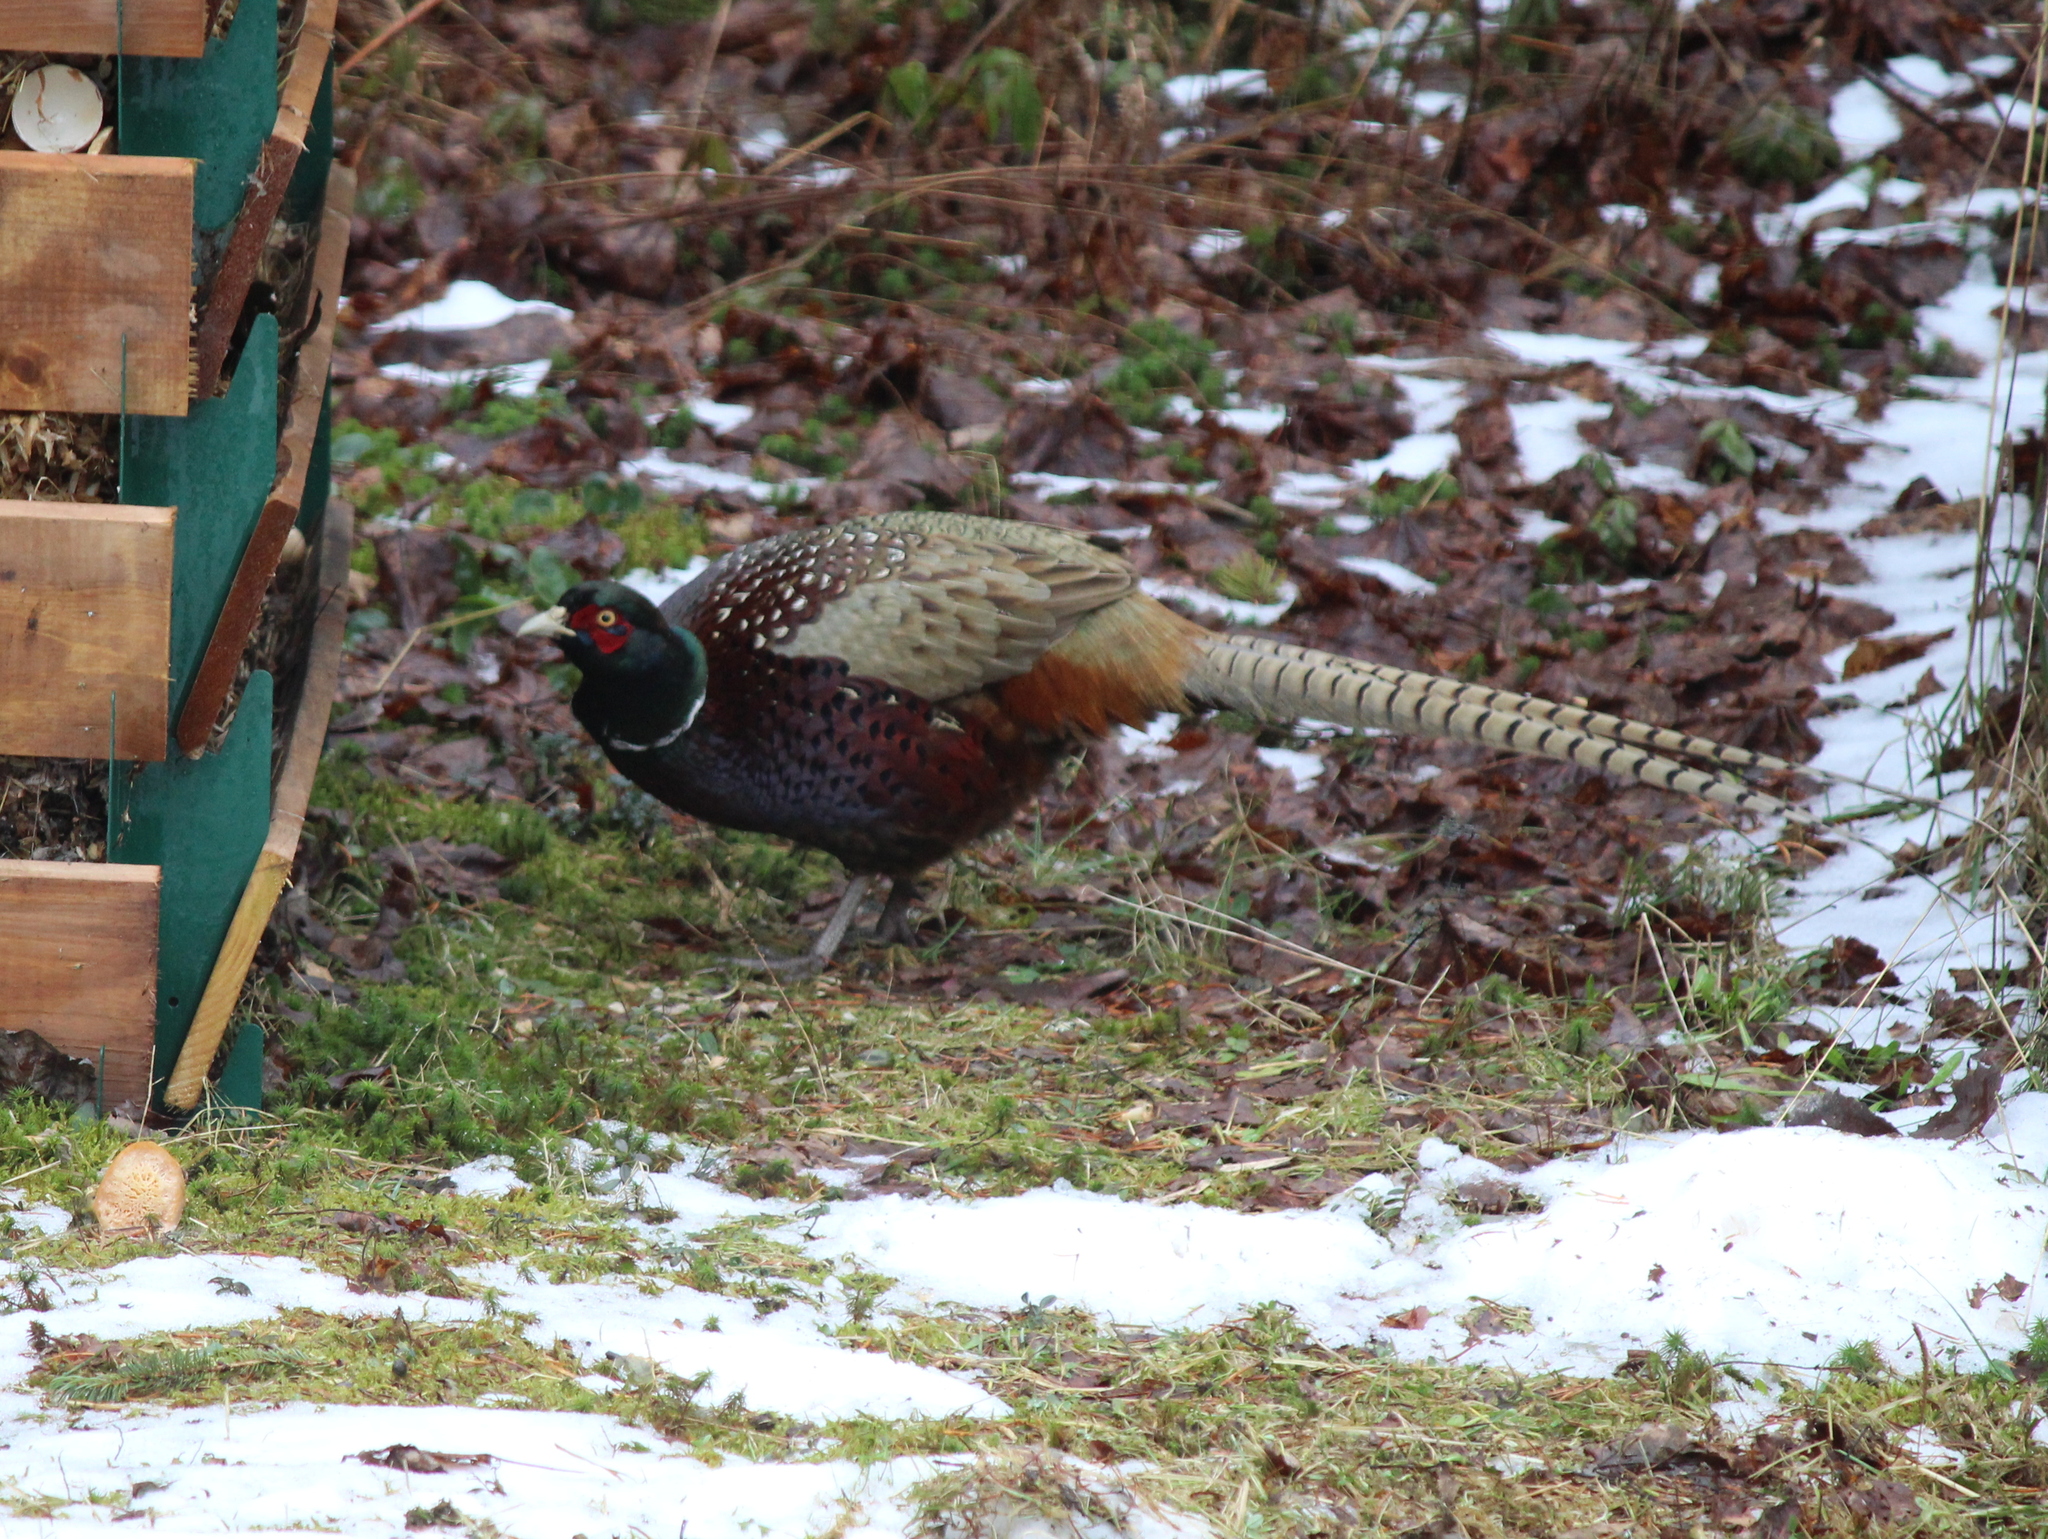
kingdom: Animalia
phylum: Chordata
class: Aves
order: Galliformes
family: Phasianidae
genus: Phasianus
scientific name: Phasianus colchicus
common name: Common pheasant
